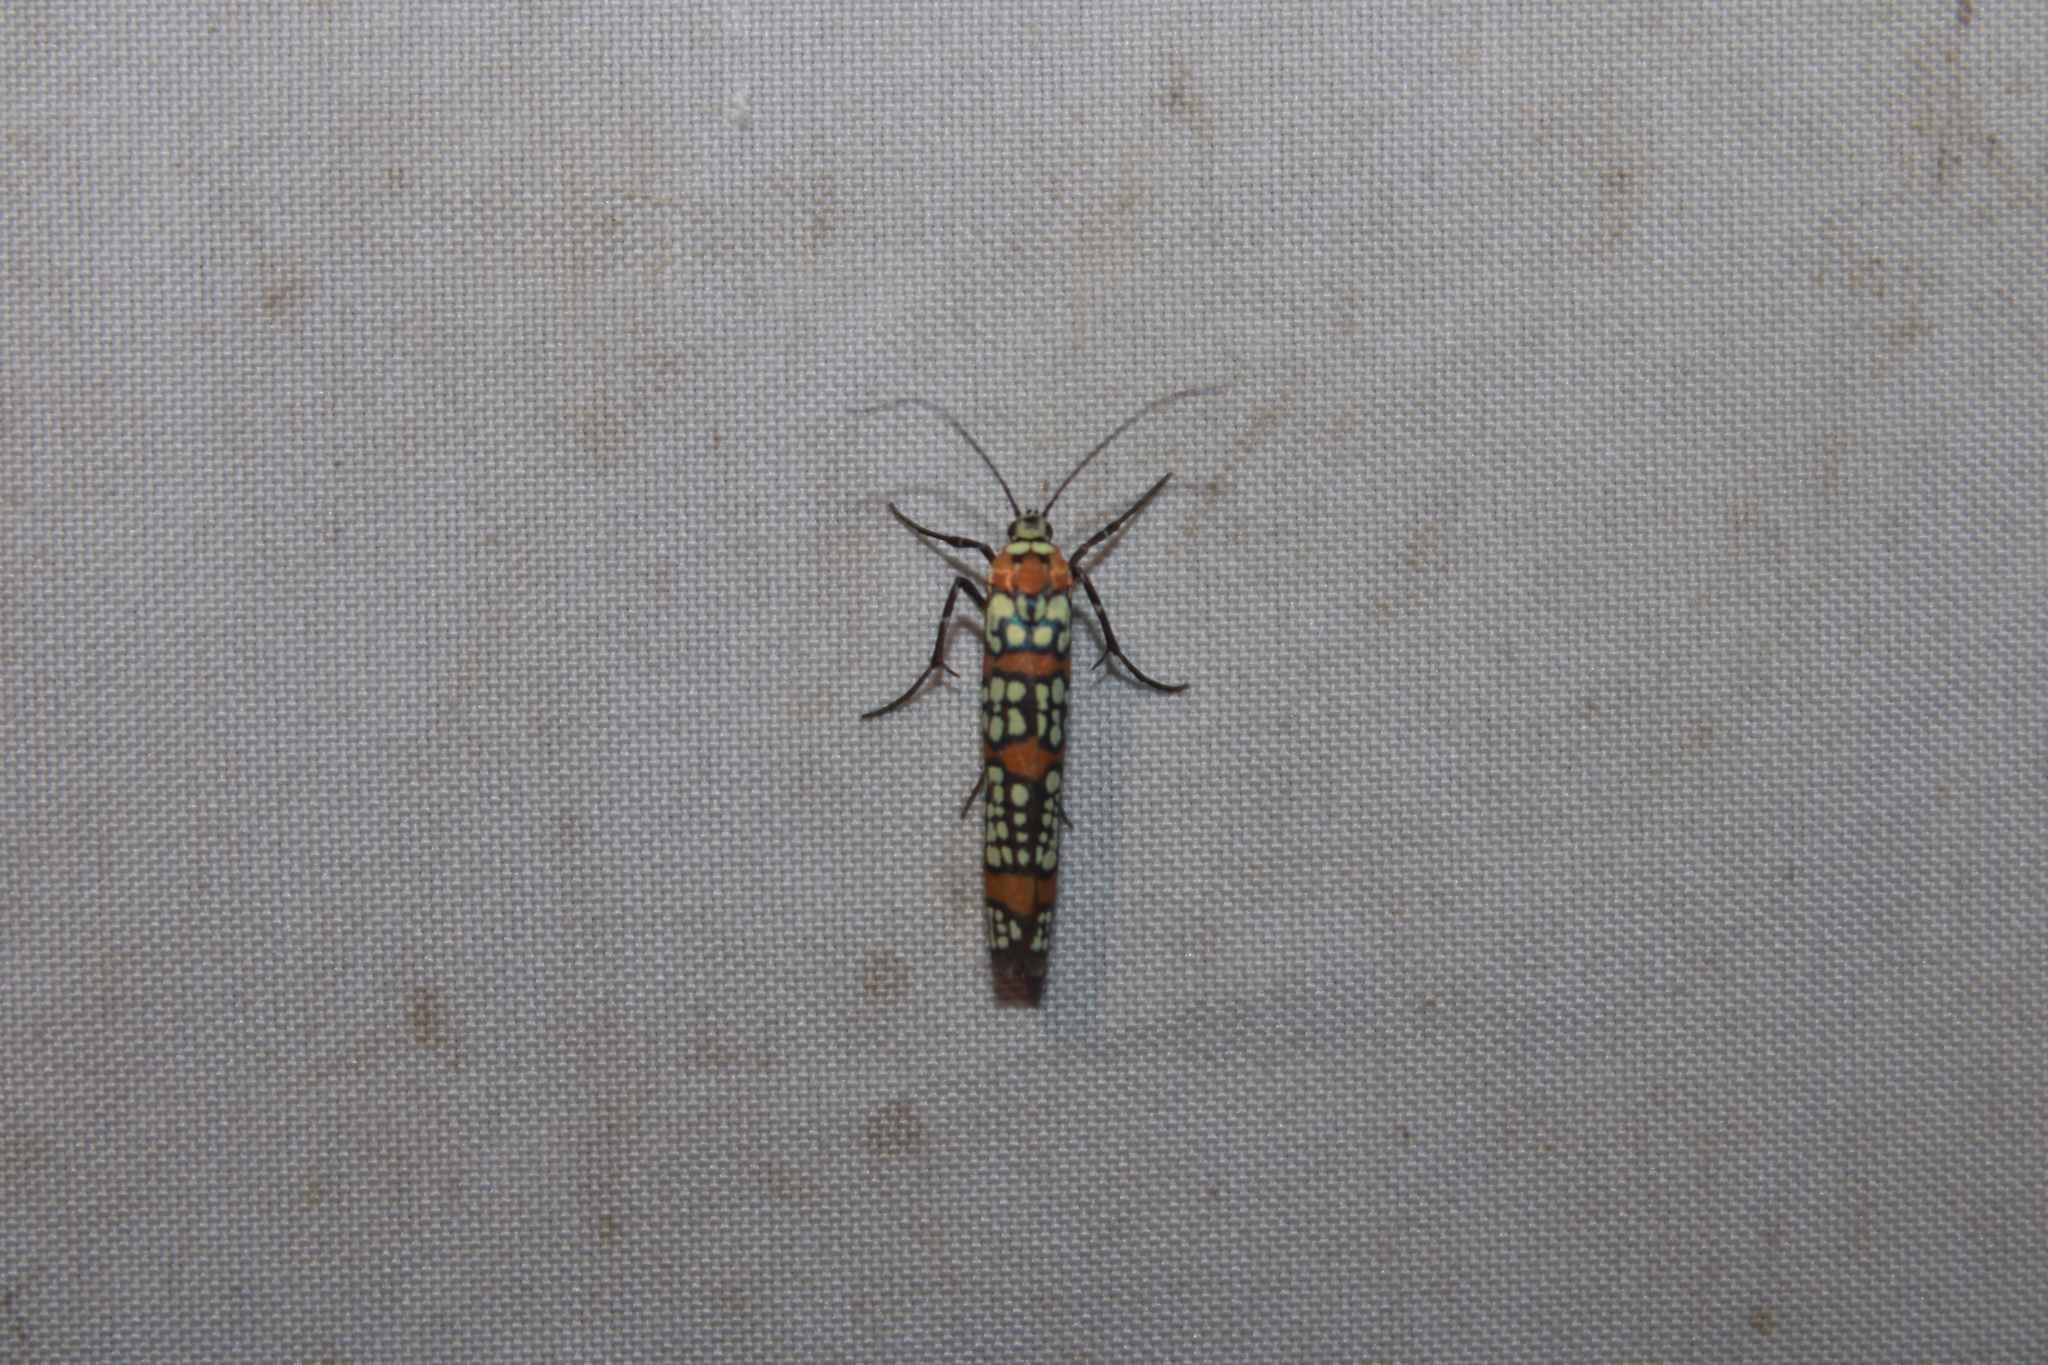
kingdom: Animalia
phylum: Arthropoda
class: Insecta
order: Lepidoptera
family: Attevidae
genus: Atteva
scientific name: Atteva punctella
